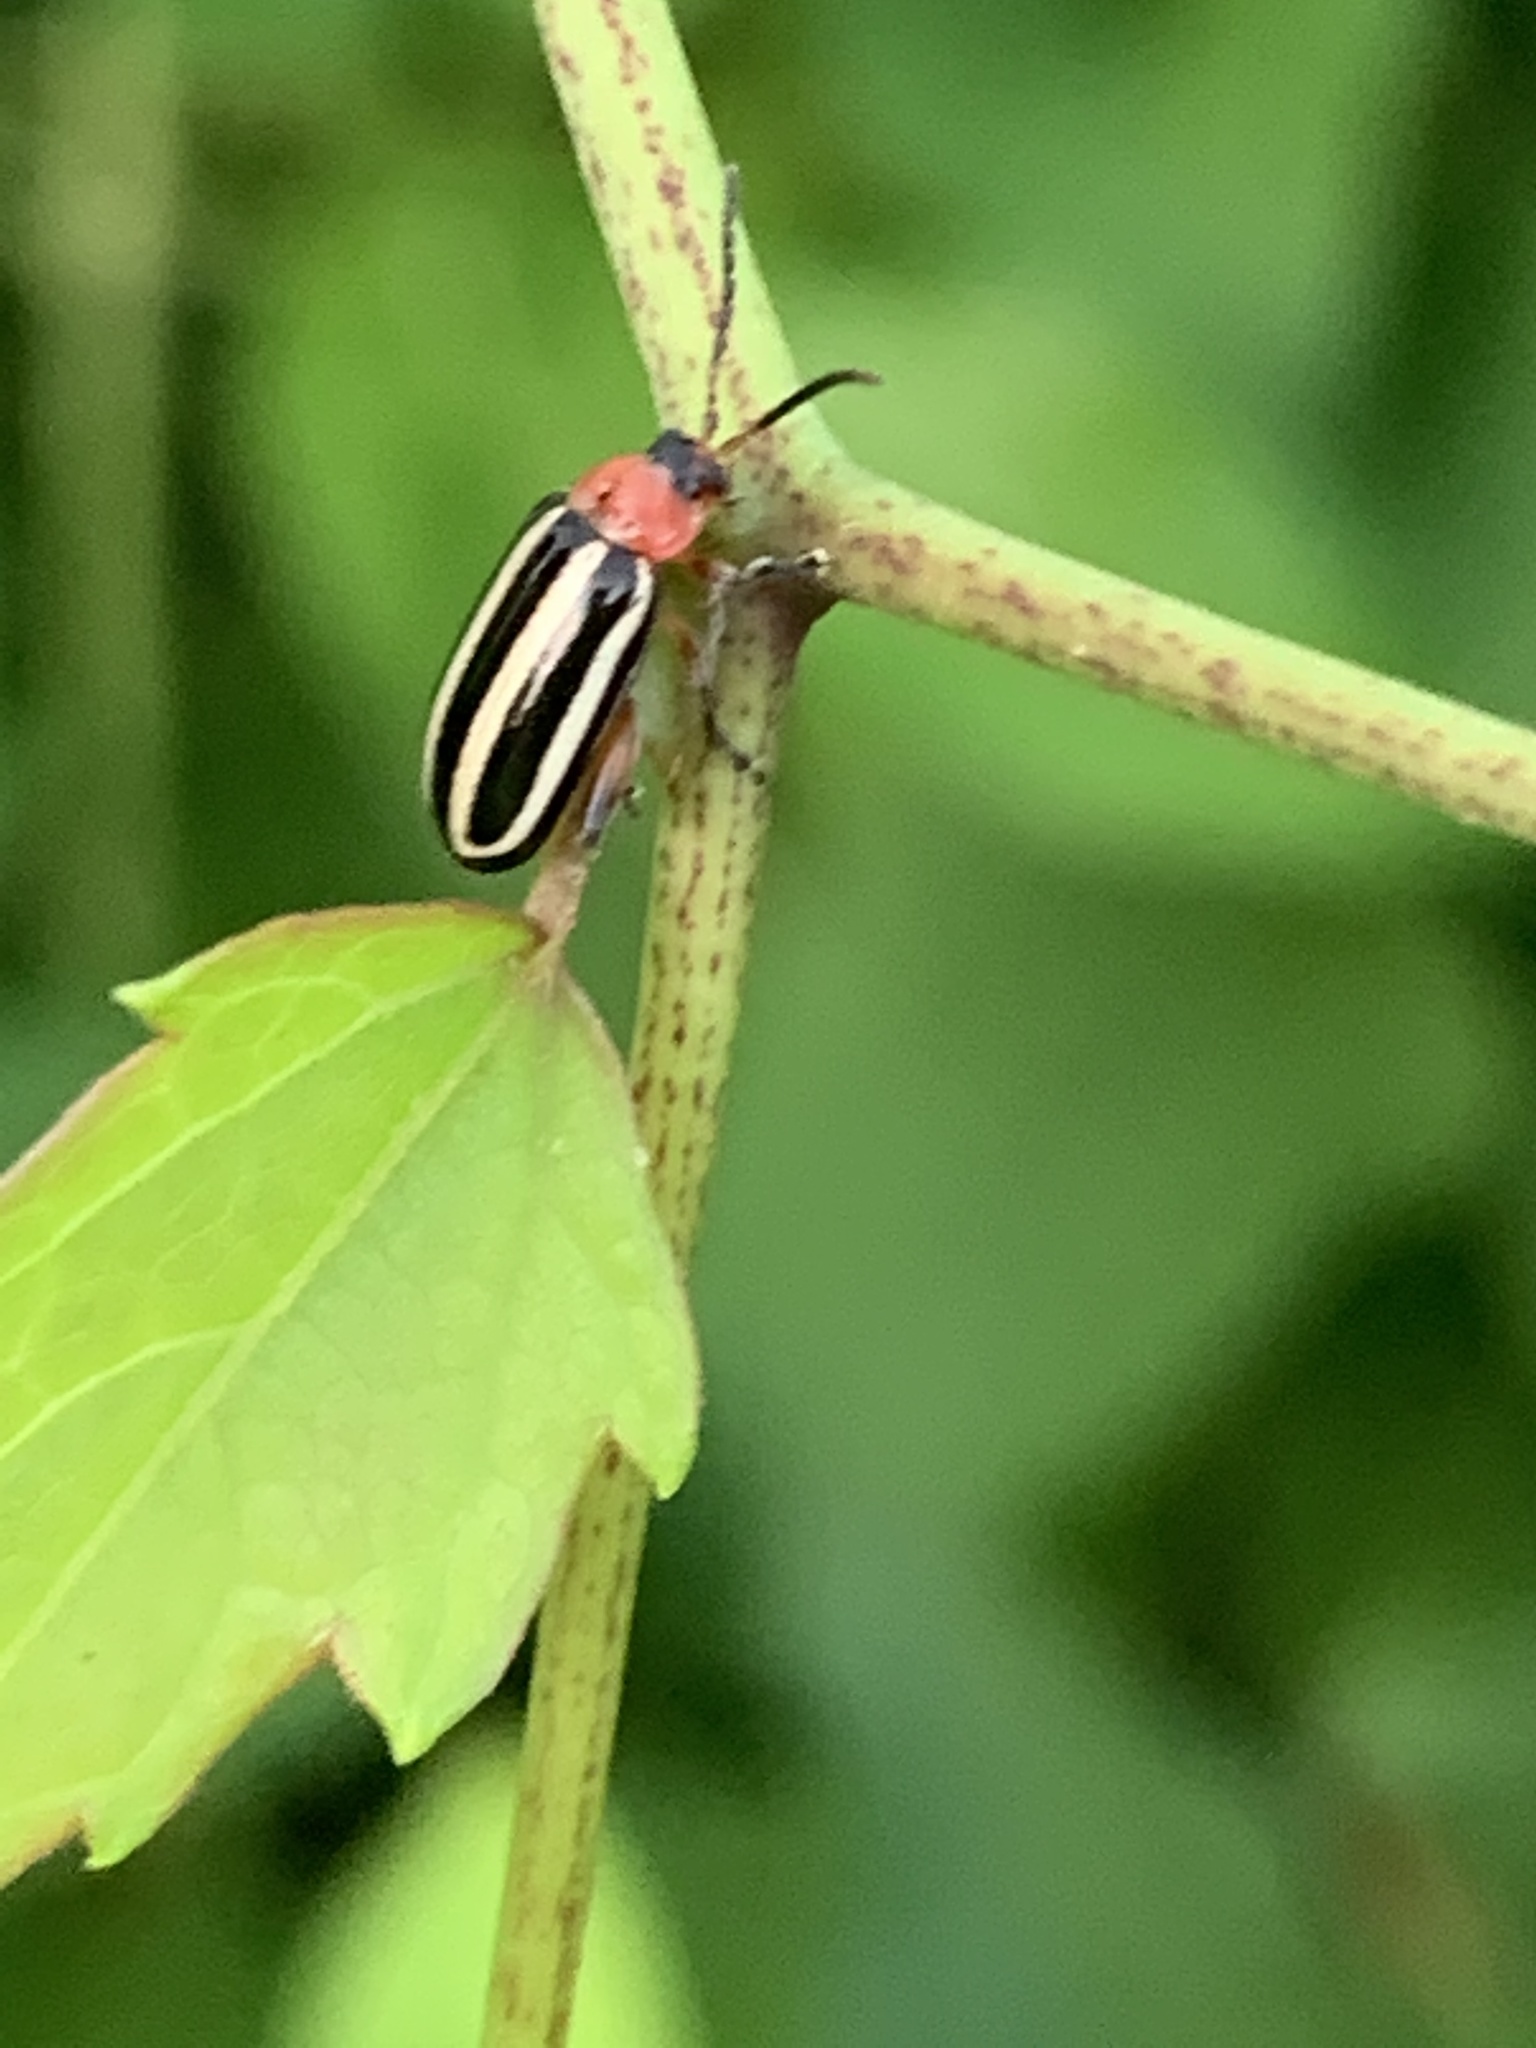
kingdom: Animalia
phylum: Arthropoda
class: Insecta
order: Coleoptera
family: Chrysomelidae
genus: Disonycha
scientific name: Disonycha glabrata
